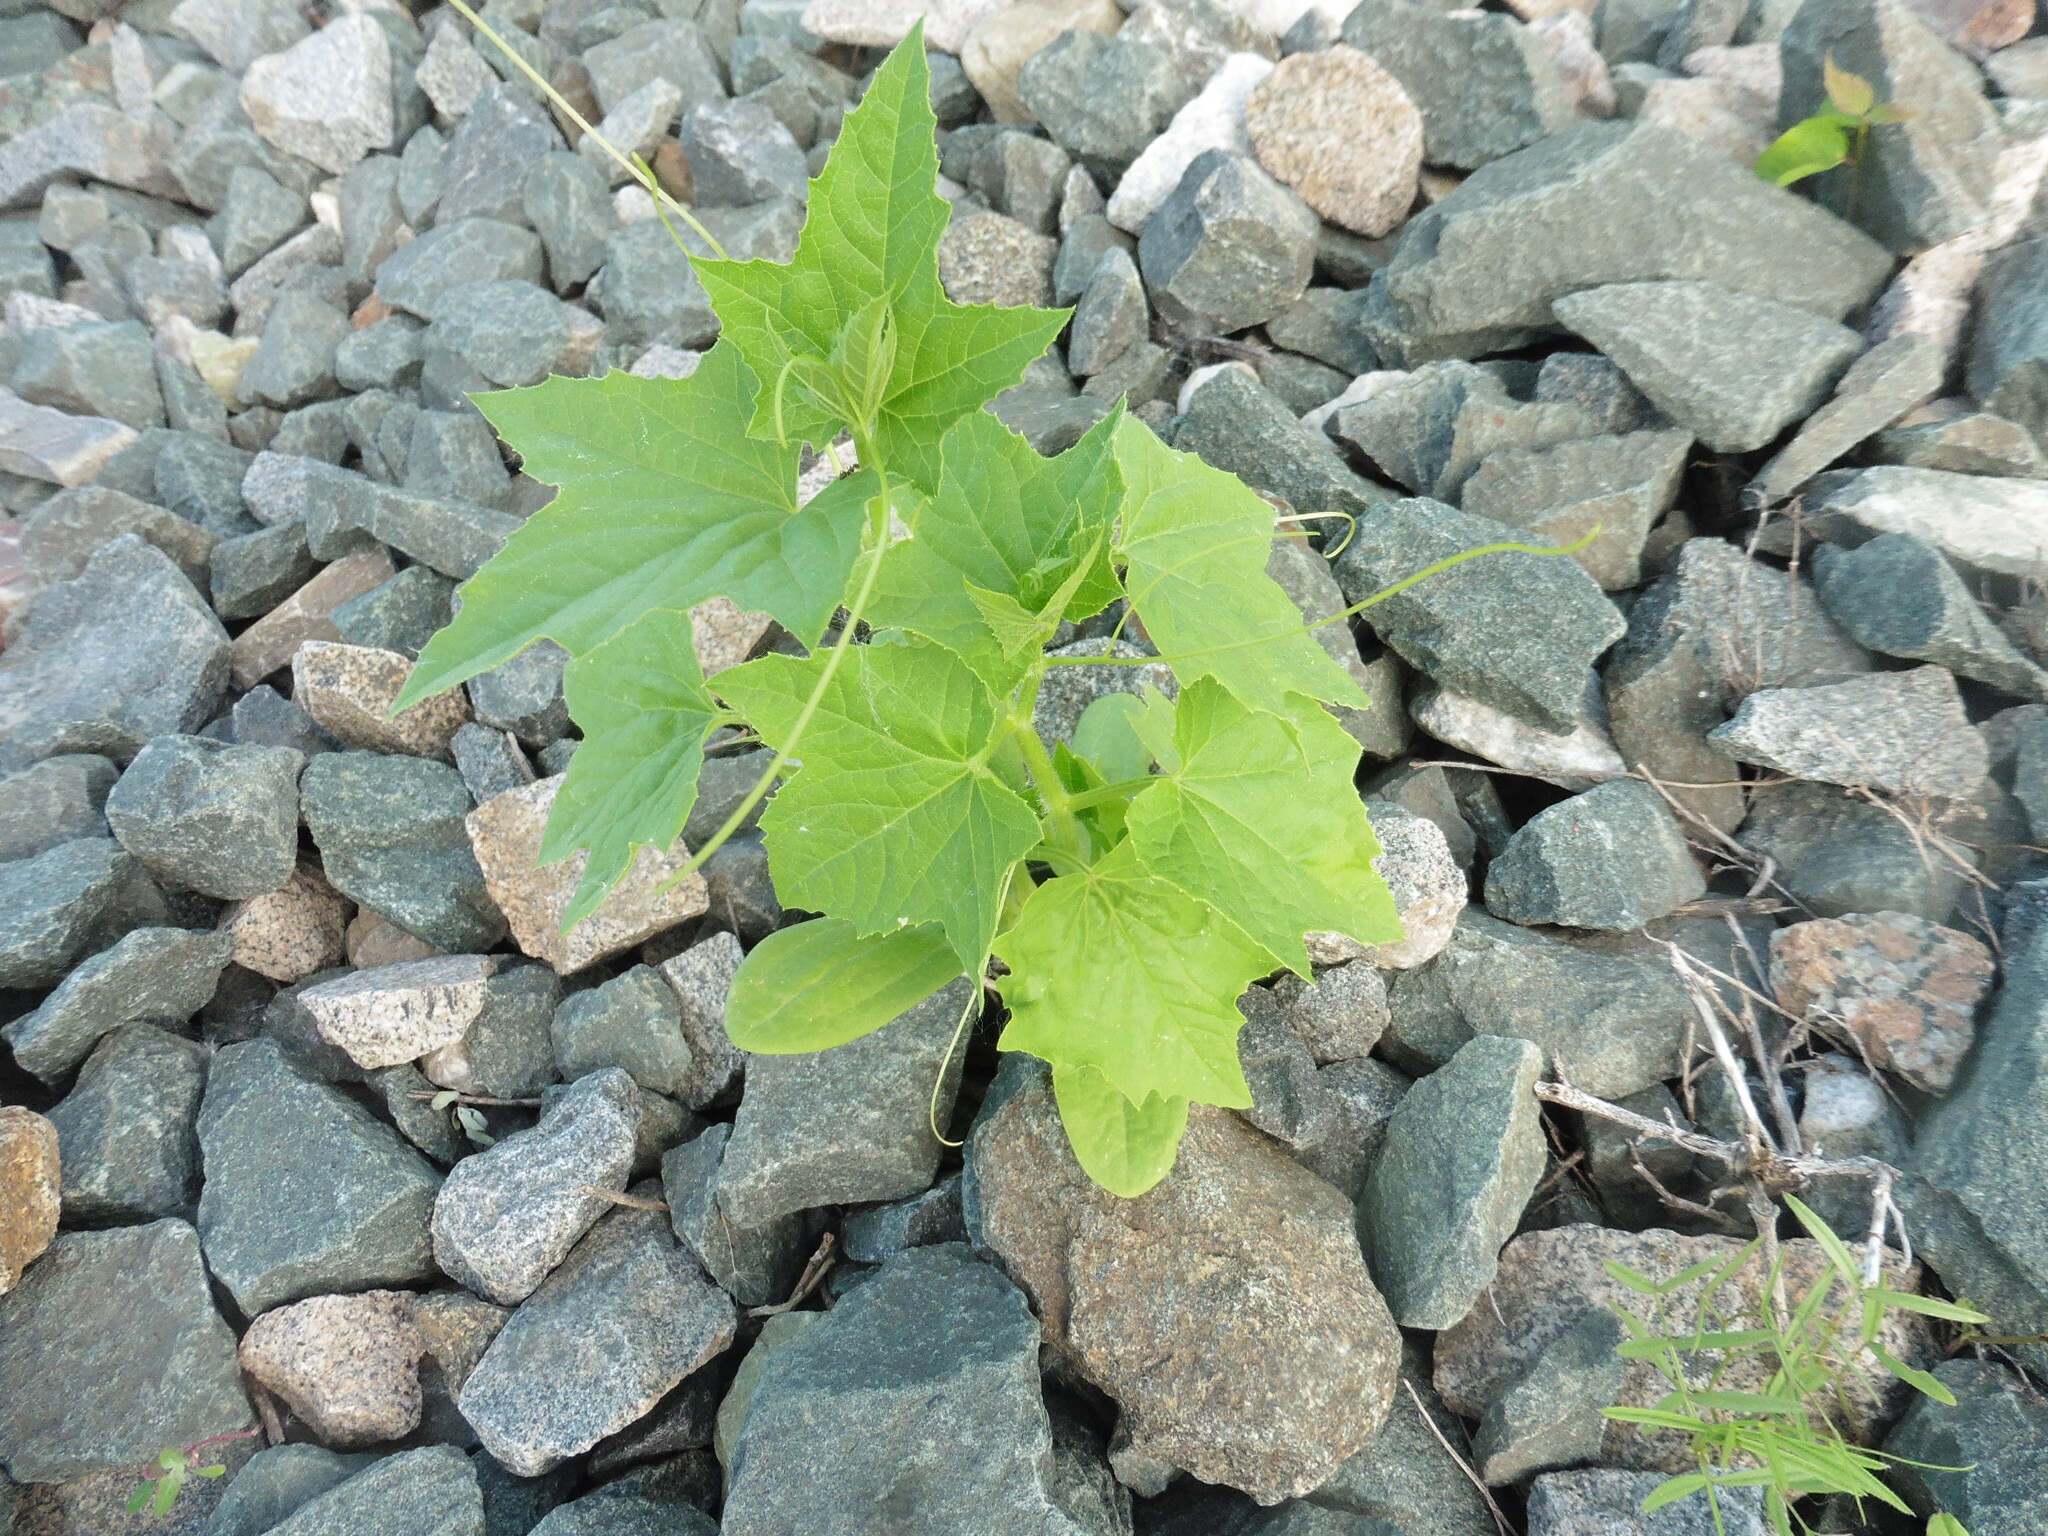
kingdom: Plantae
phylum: Tracheophyta
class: Magnoliopsida
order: Cucurbitales
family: Cucurbitaceae
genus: Echinocystis
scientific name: Echinocystis lobata
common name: Wild cucumber
